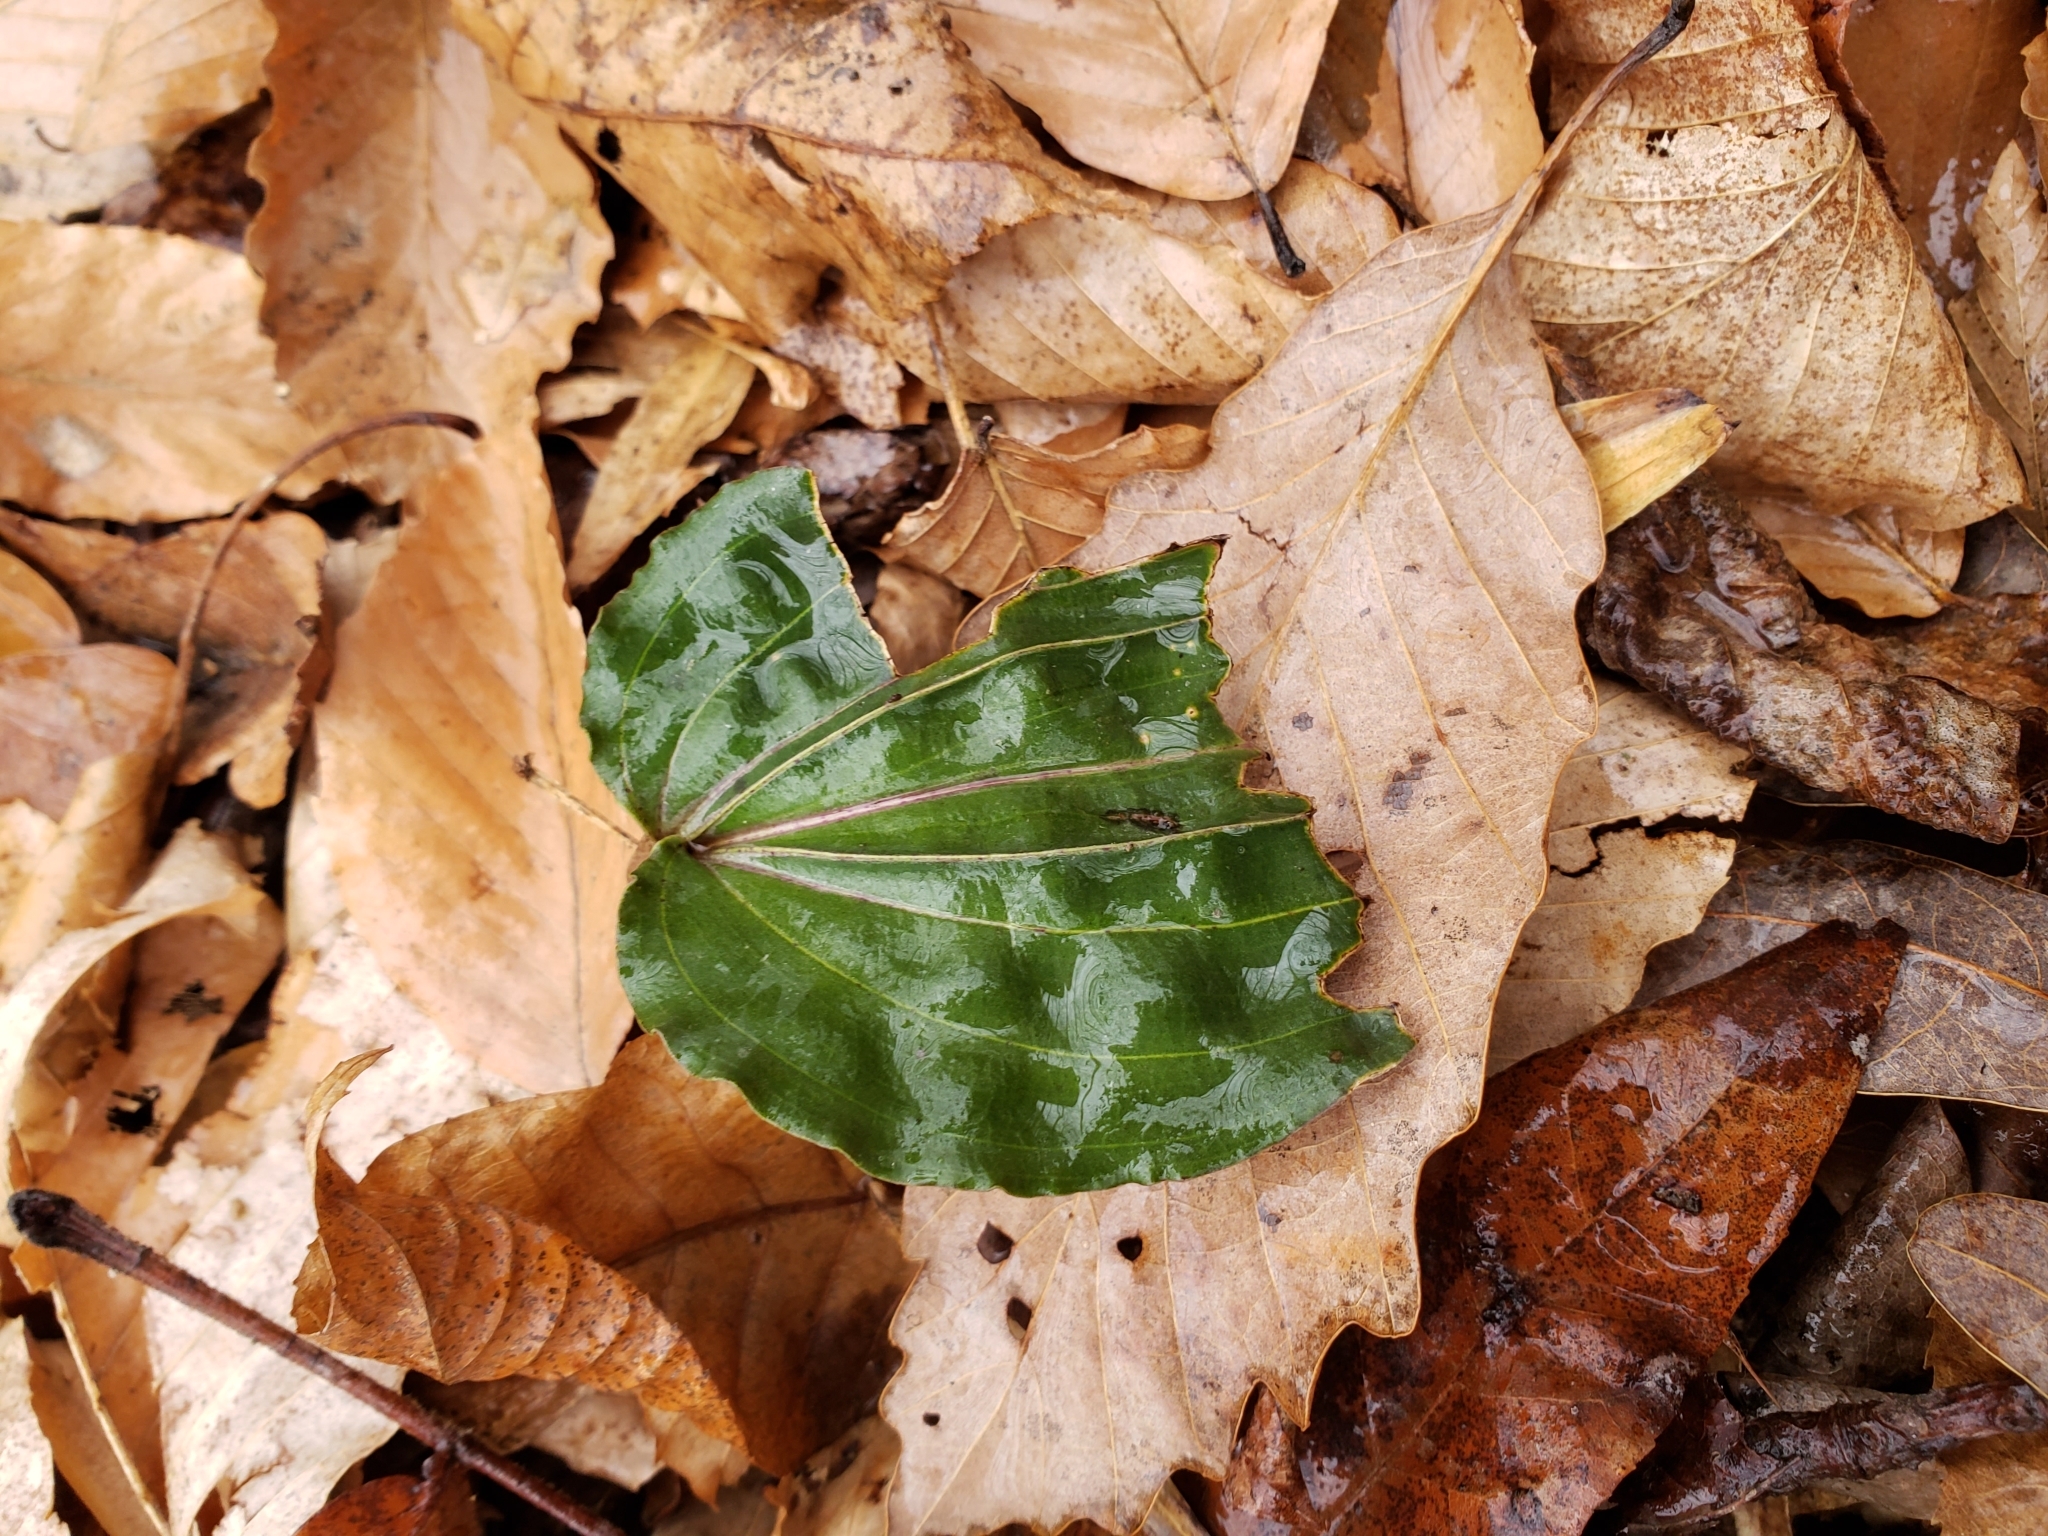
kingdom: Plantae
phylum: Tracheophyta
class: Liliopsida
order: Asparagales
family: Orchidaceae
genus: Tipularia
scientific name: Tipularia discolor
